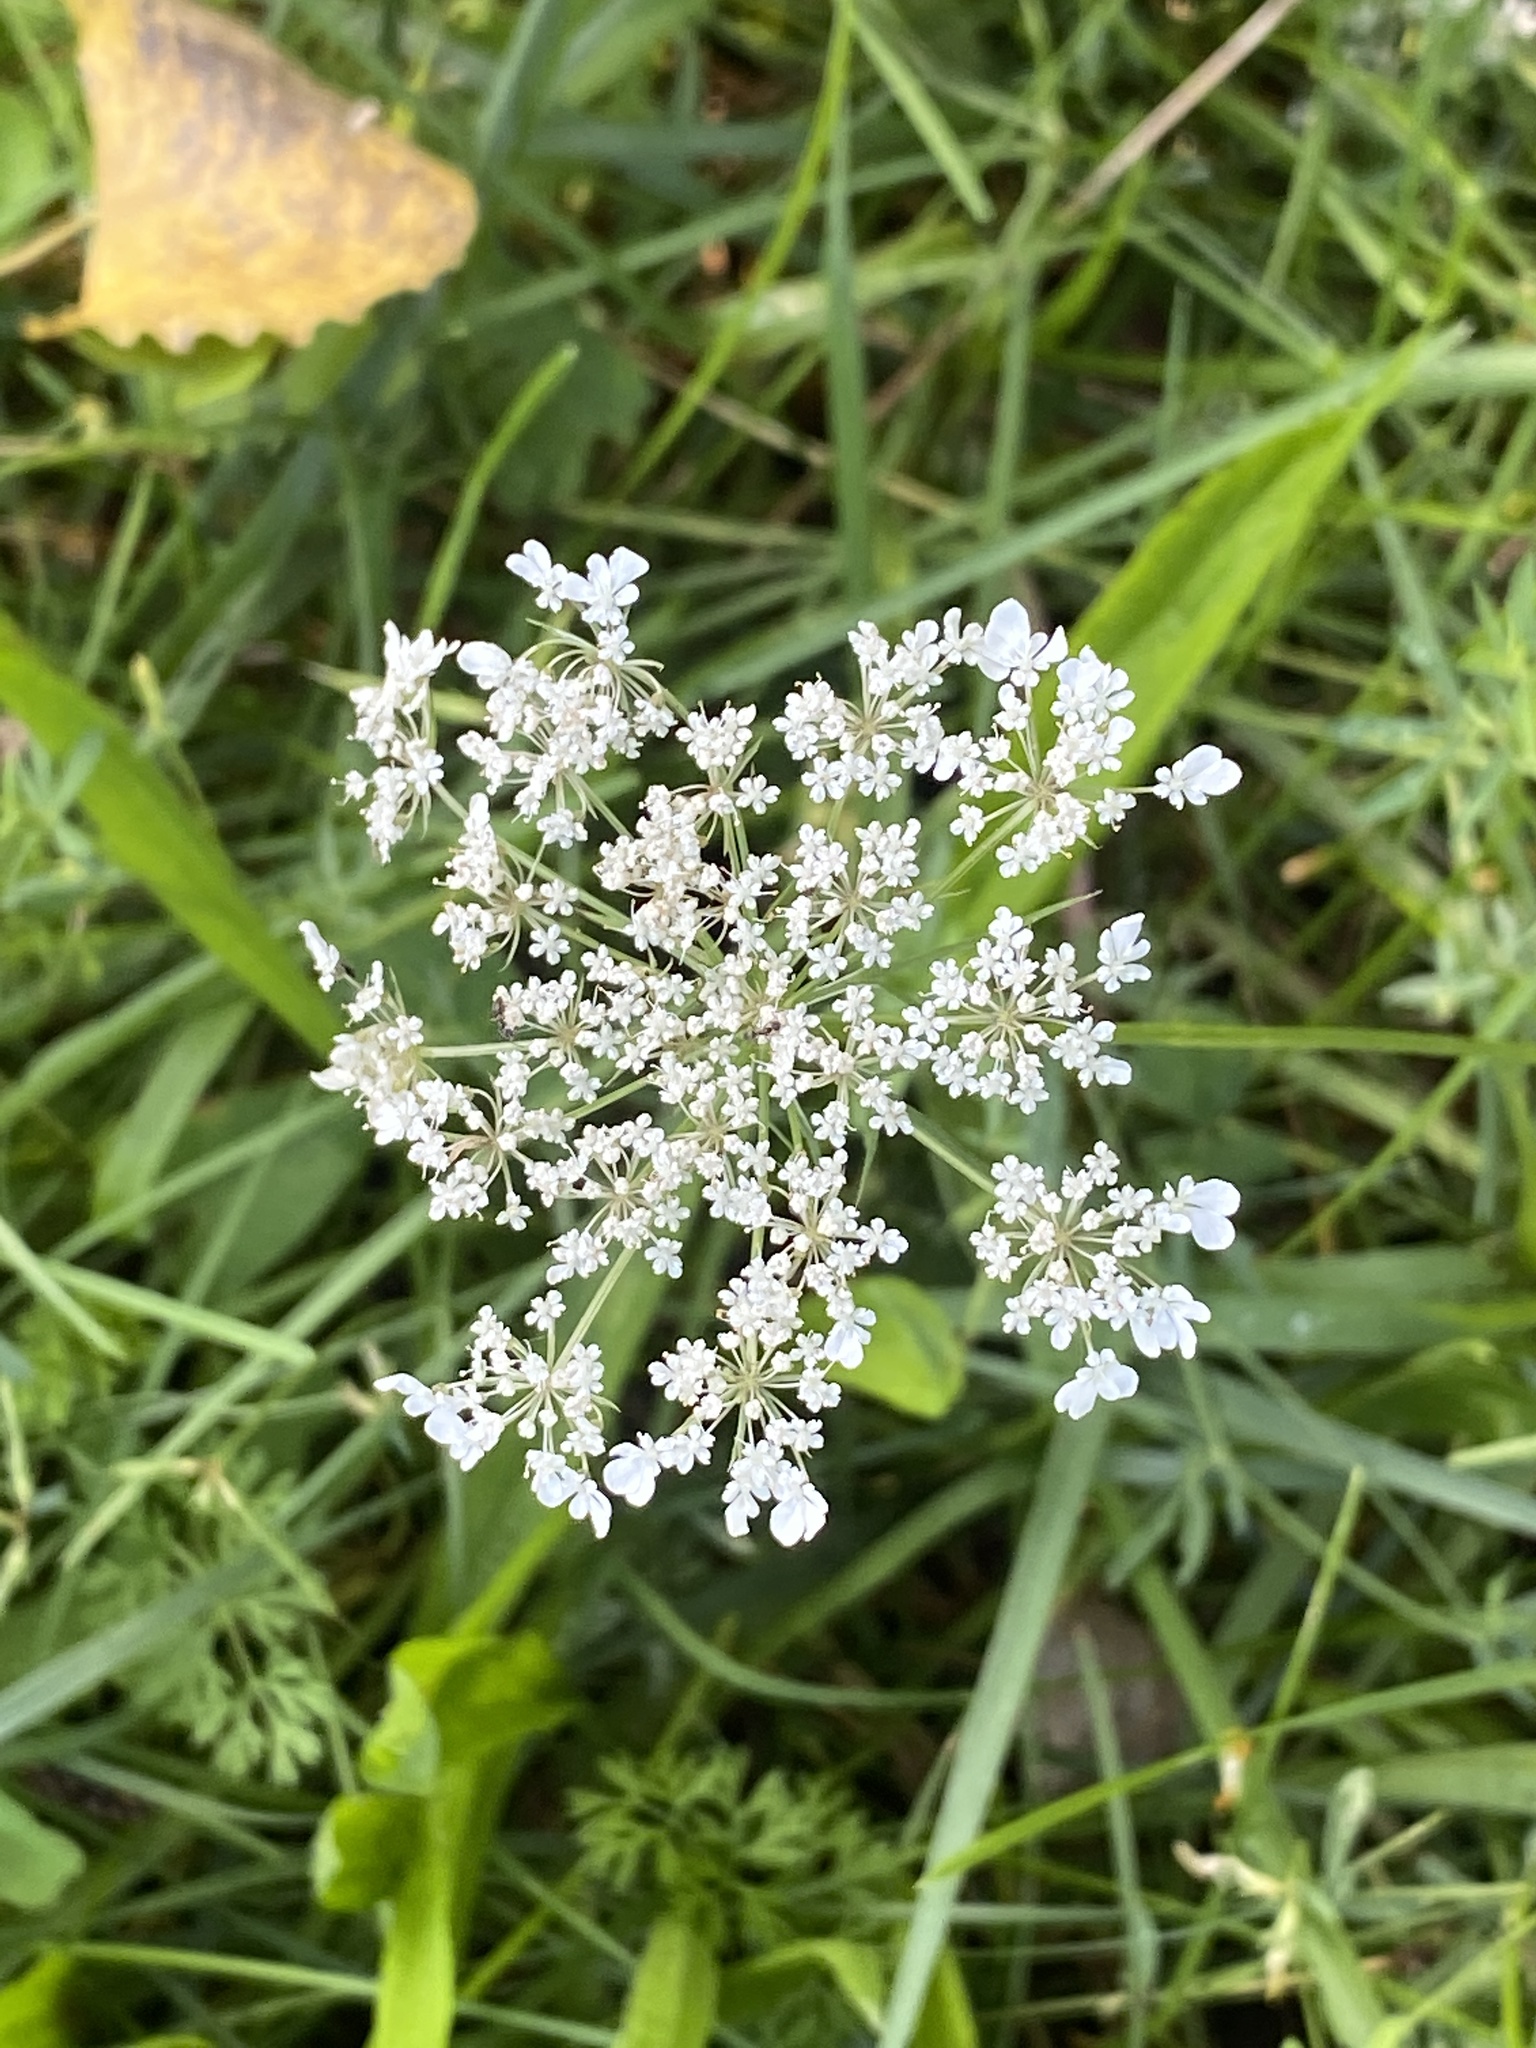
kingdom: Plantae
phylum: Tracheophyta
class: Magnoliopsida
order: Apiales
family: Apiaceae
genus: Daucus
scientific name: Daucus carota
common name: Wild carrot
